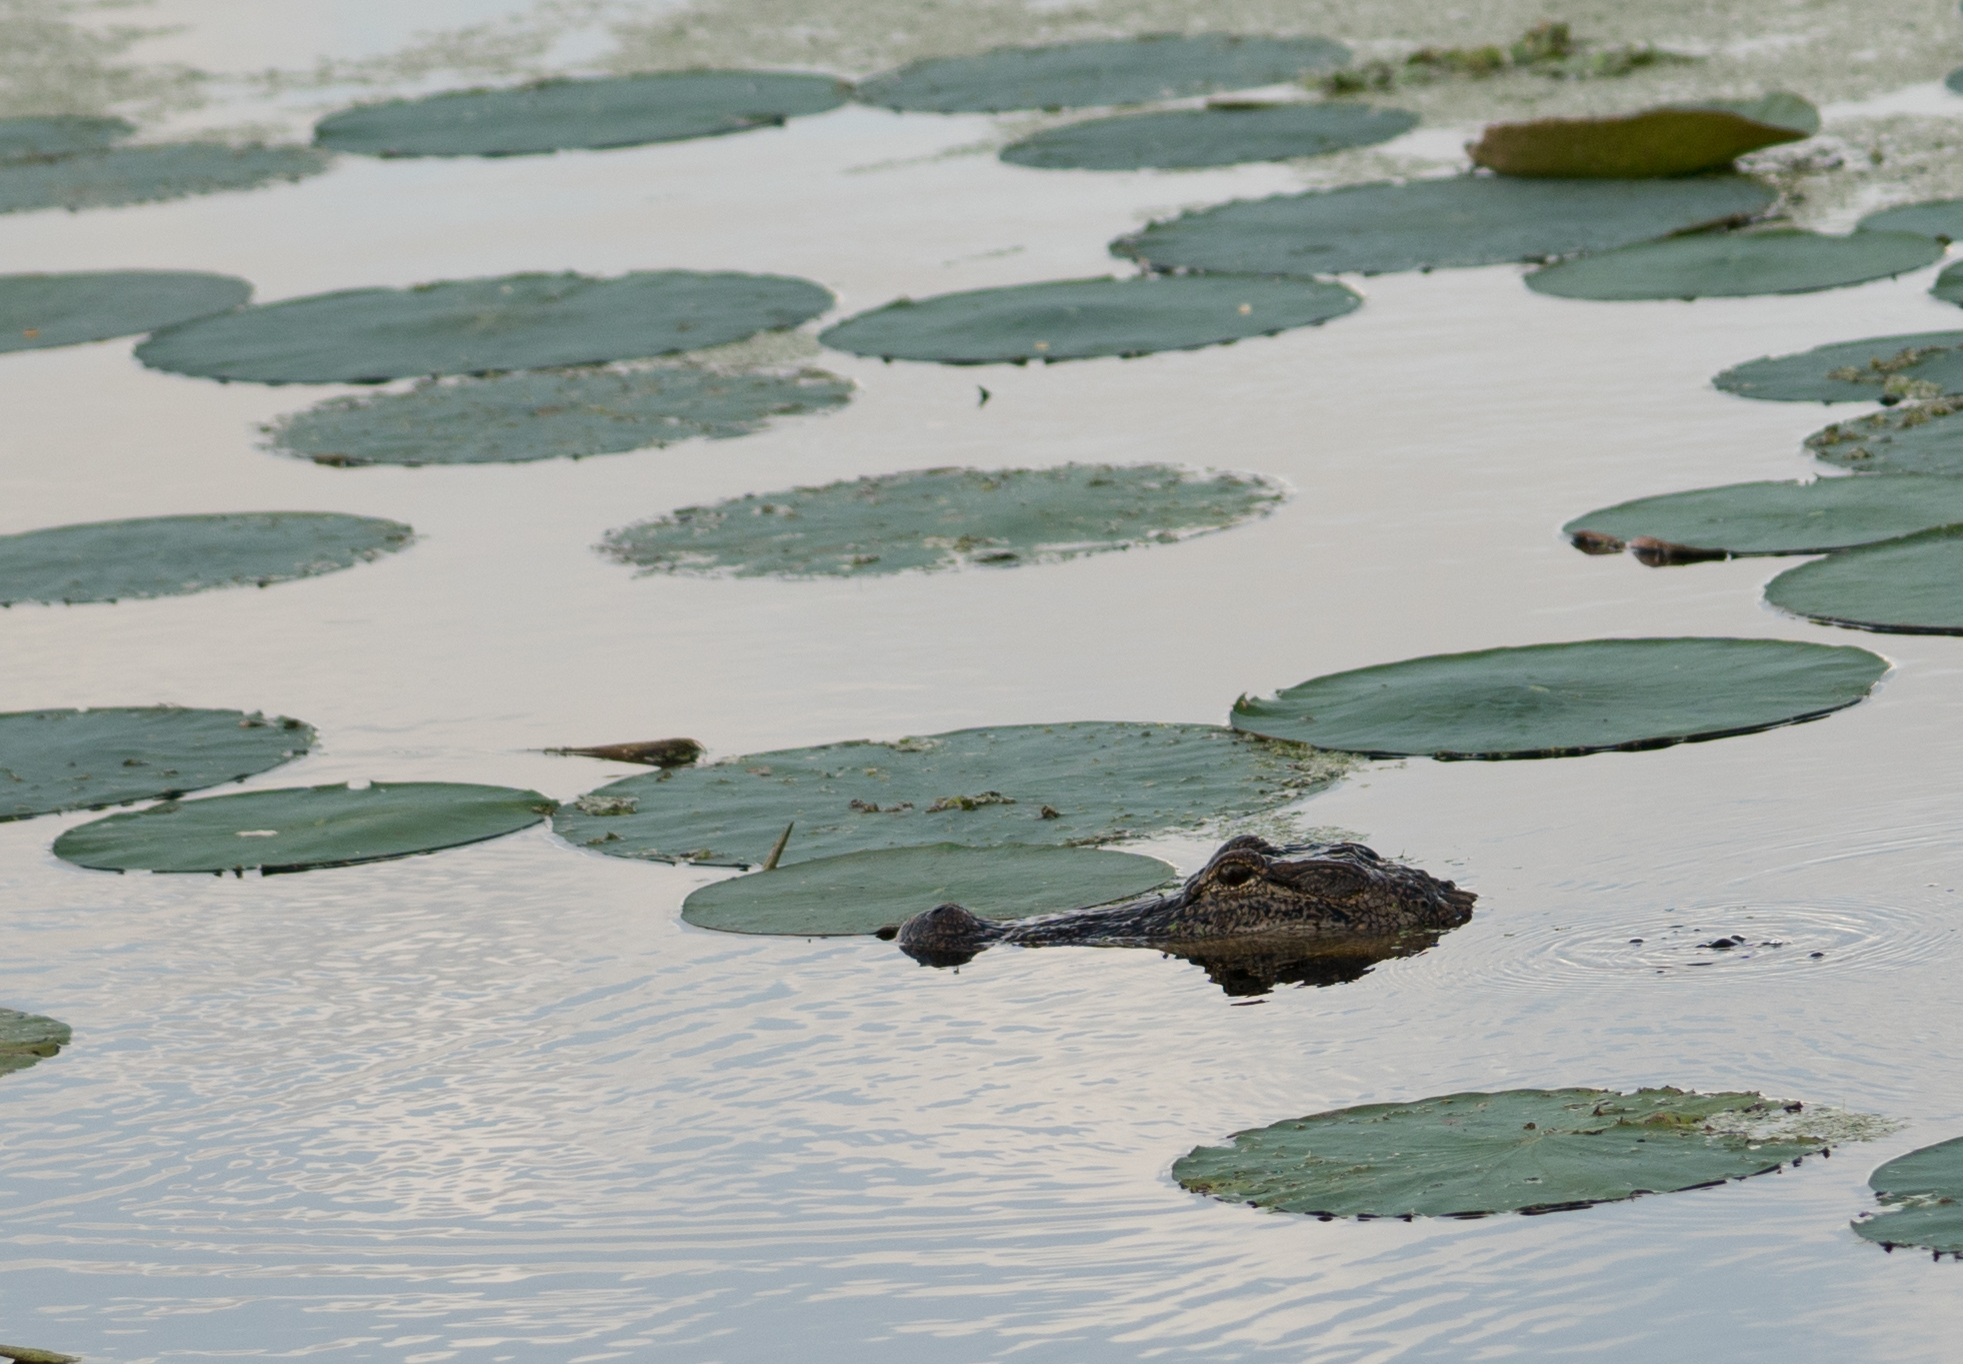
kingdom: Animalia
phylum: Chordata
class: Crocodylia
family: Alligatoridae
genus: Alligator
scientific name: Alligator mississippiensis
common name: American alligator
